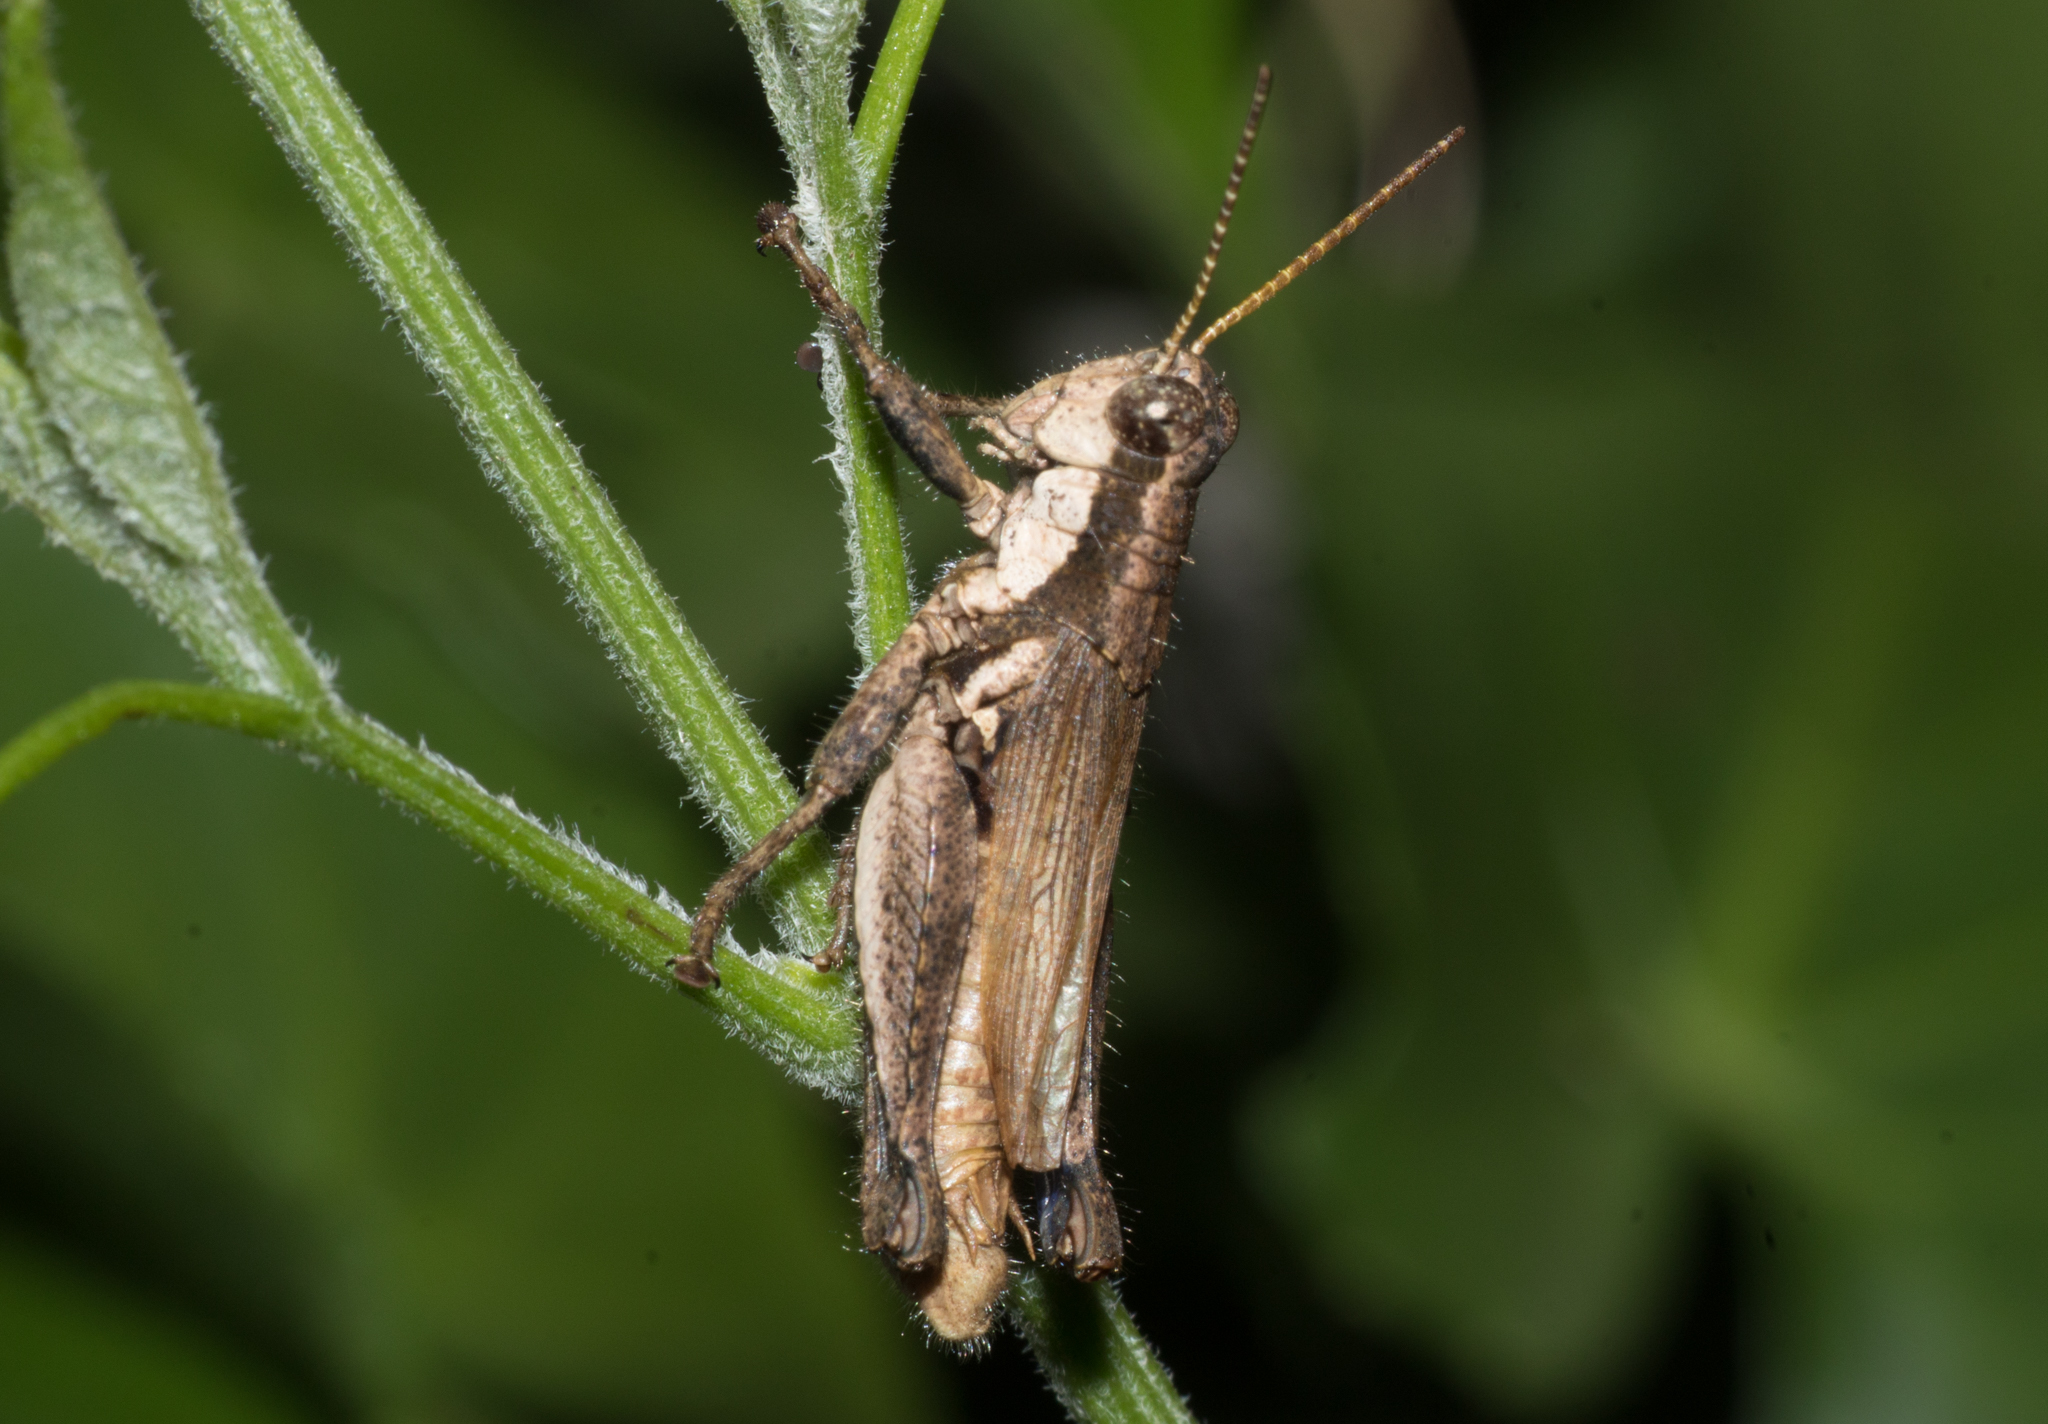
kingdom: Animalia
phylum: Arthropoda
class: Insecta
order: Orthoptera
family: Acrididae
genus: Ronderosia
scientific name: Ronderosia bergii
